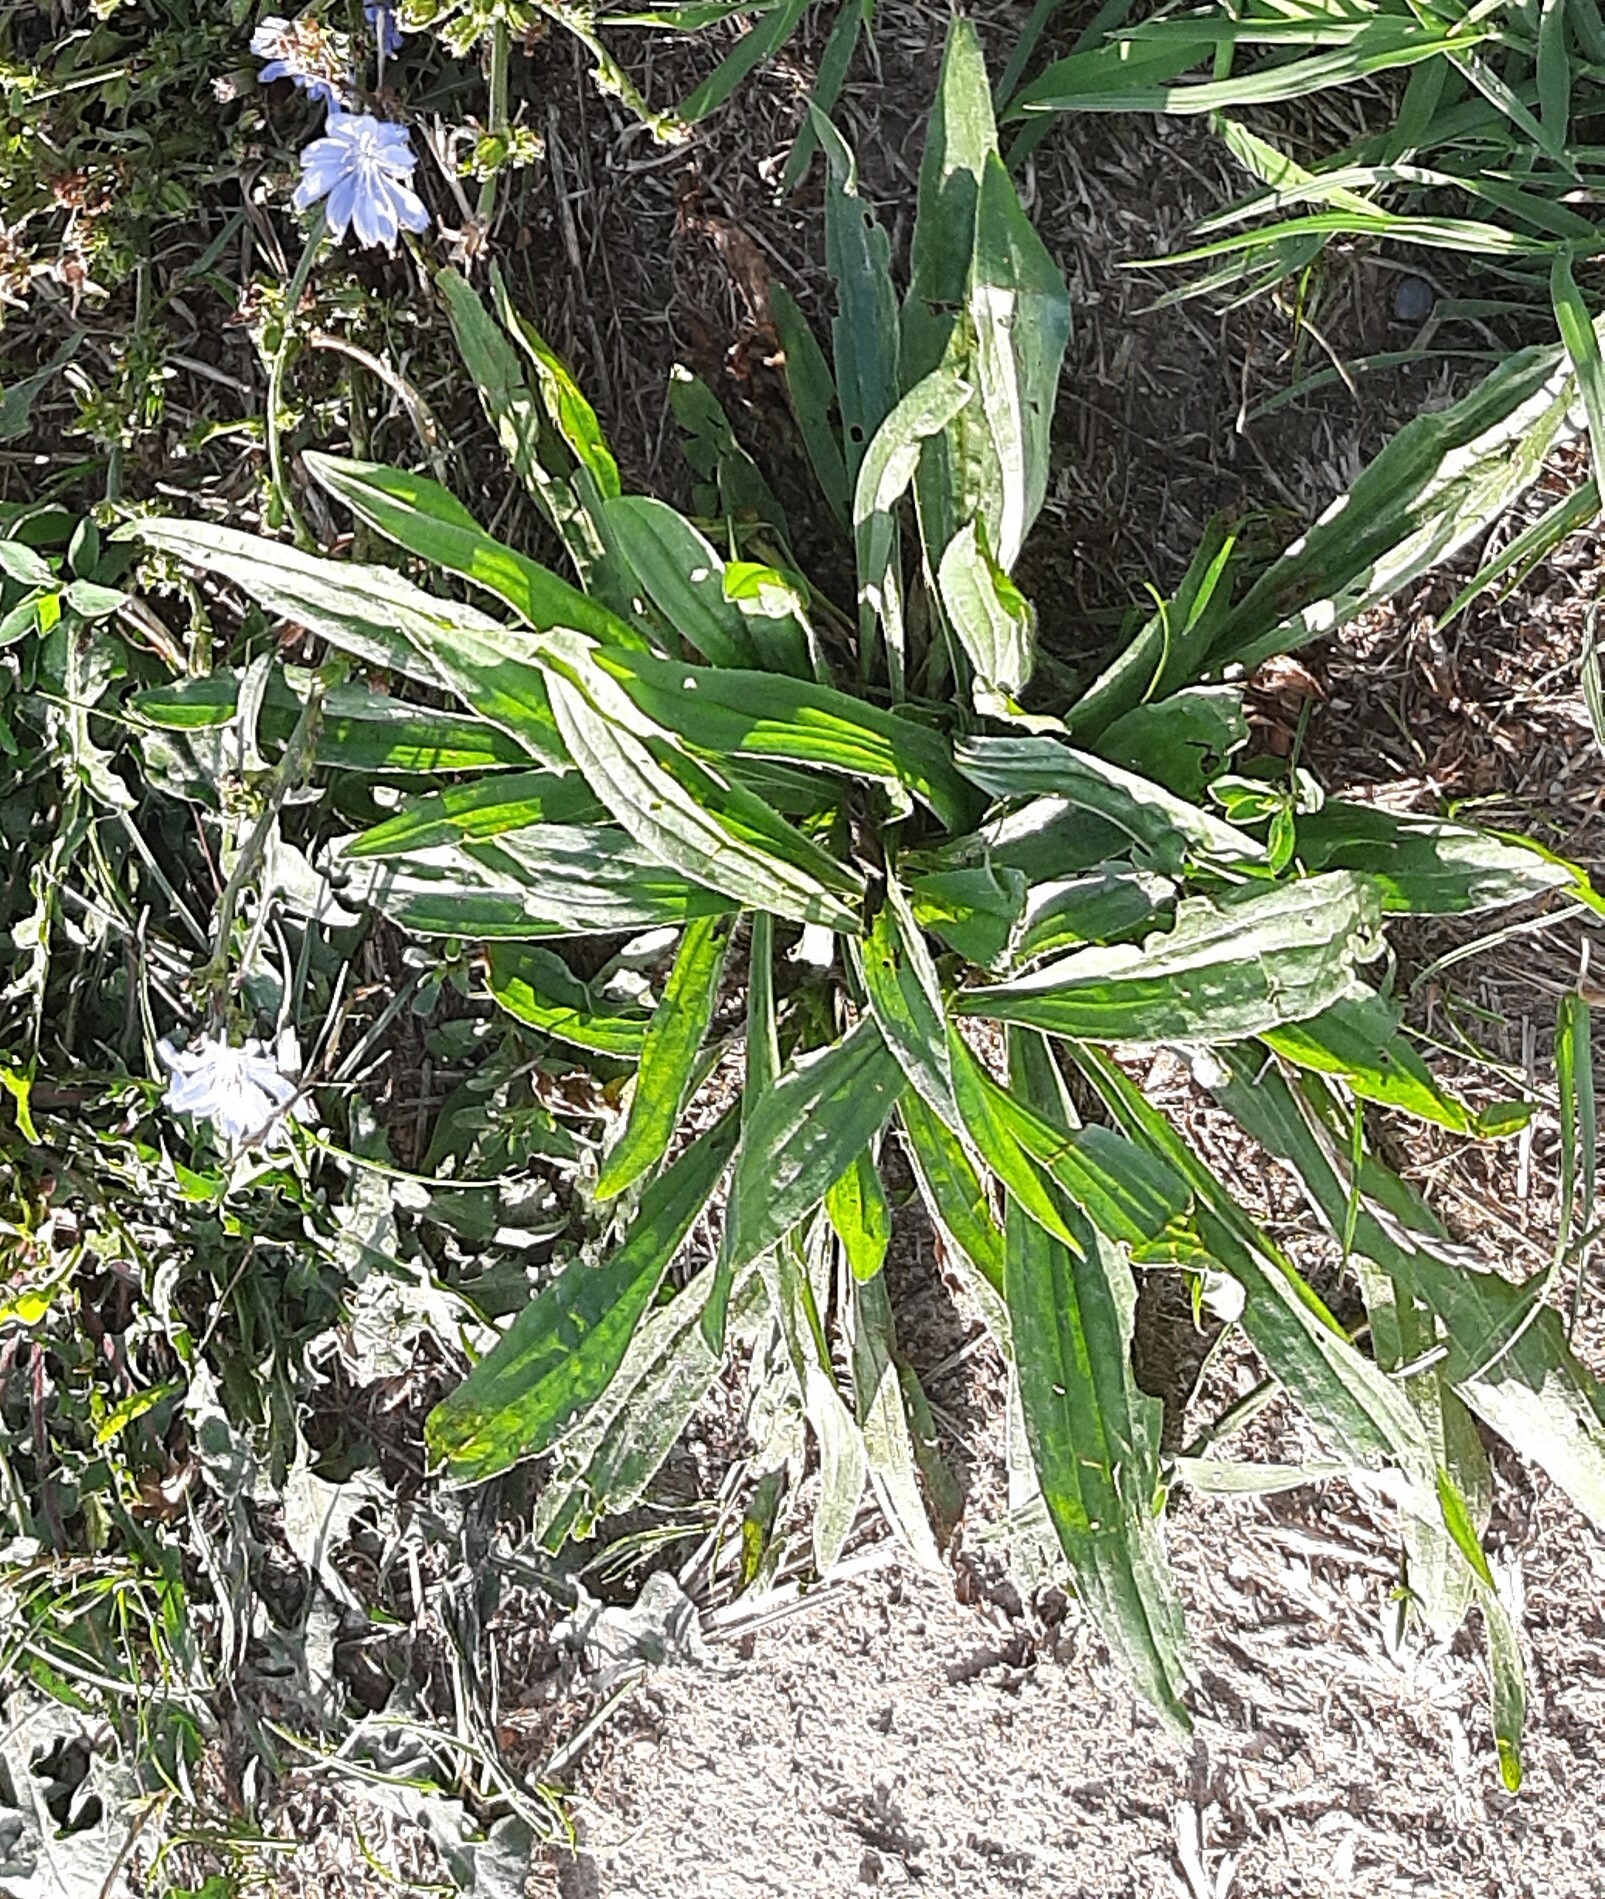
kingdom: Plantae
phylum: Tracheophyta
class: Magnoliopsida
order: Lamiales
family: Plantaginaceae
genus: Plantago
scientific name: Plantago lanceolata
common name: Ribwort plantain
